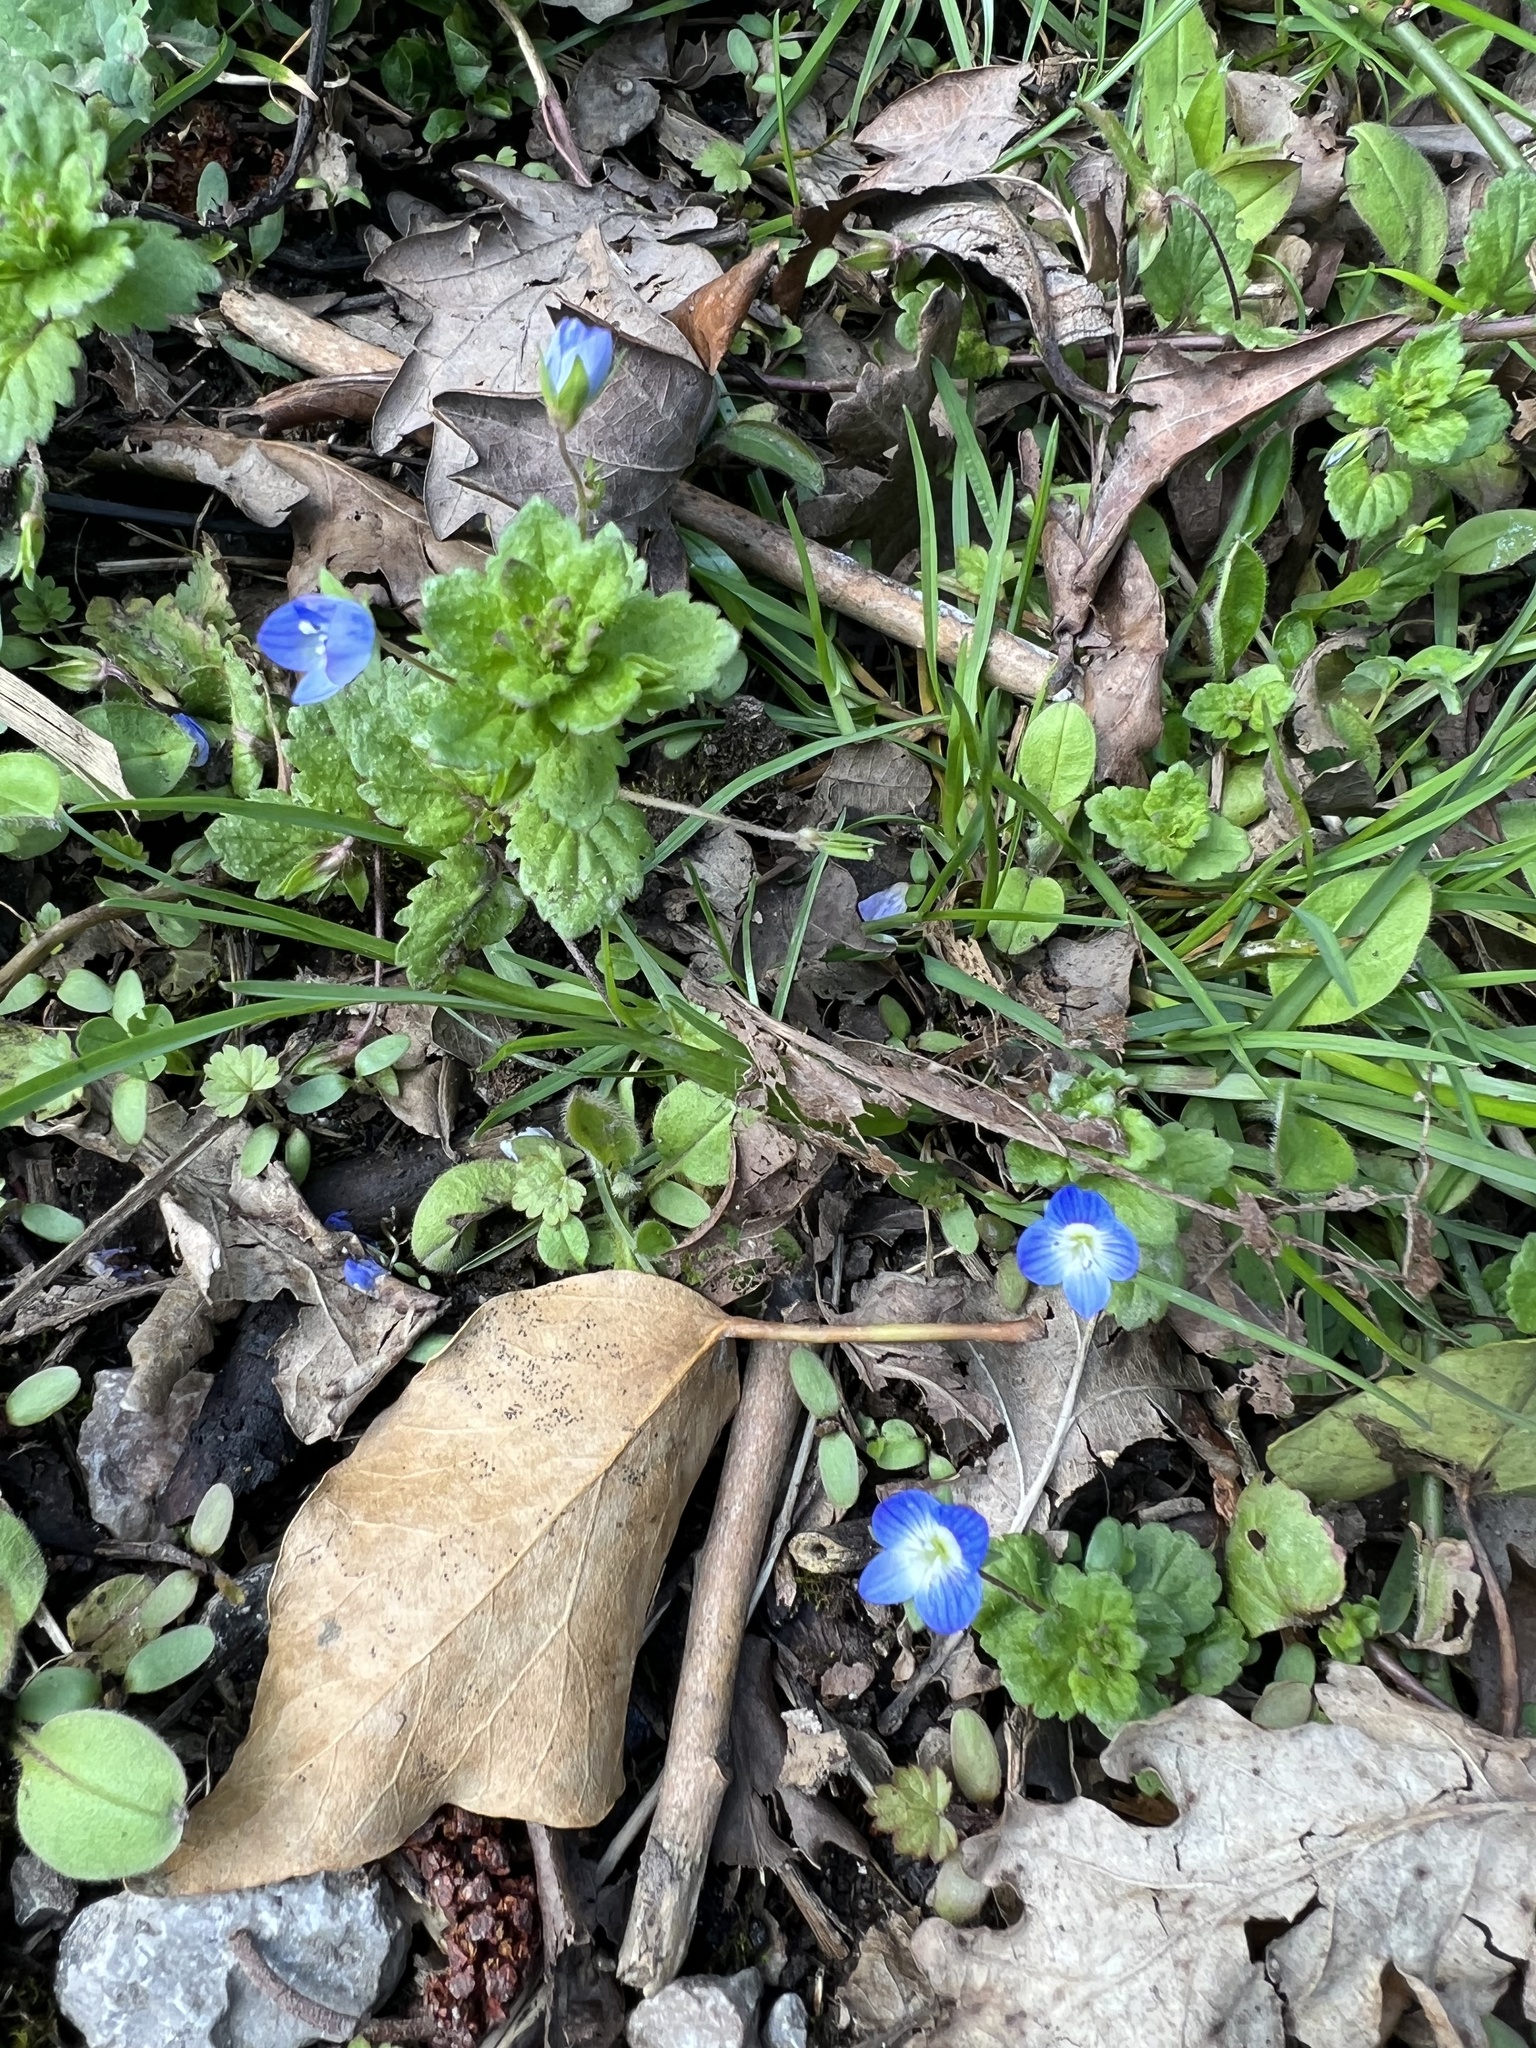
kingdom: Plantae
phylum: Tracheophyta
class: Magnoliopsida
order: Lamiales
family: Plantaginaceae
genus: Veronica
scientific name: Veronica persica
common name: Common field-speedwell
